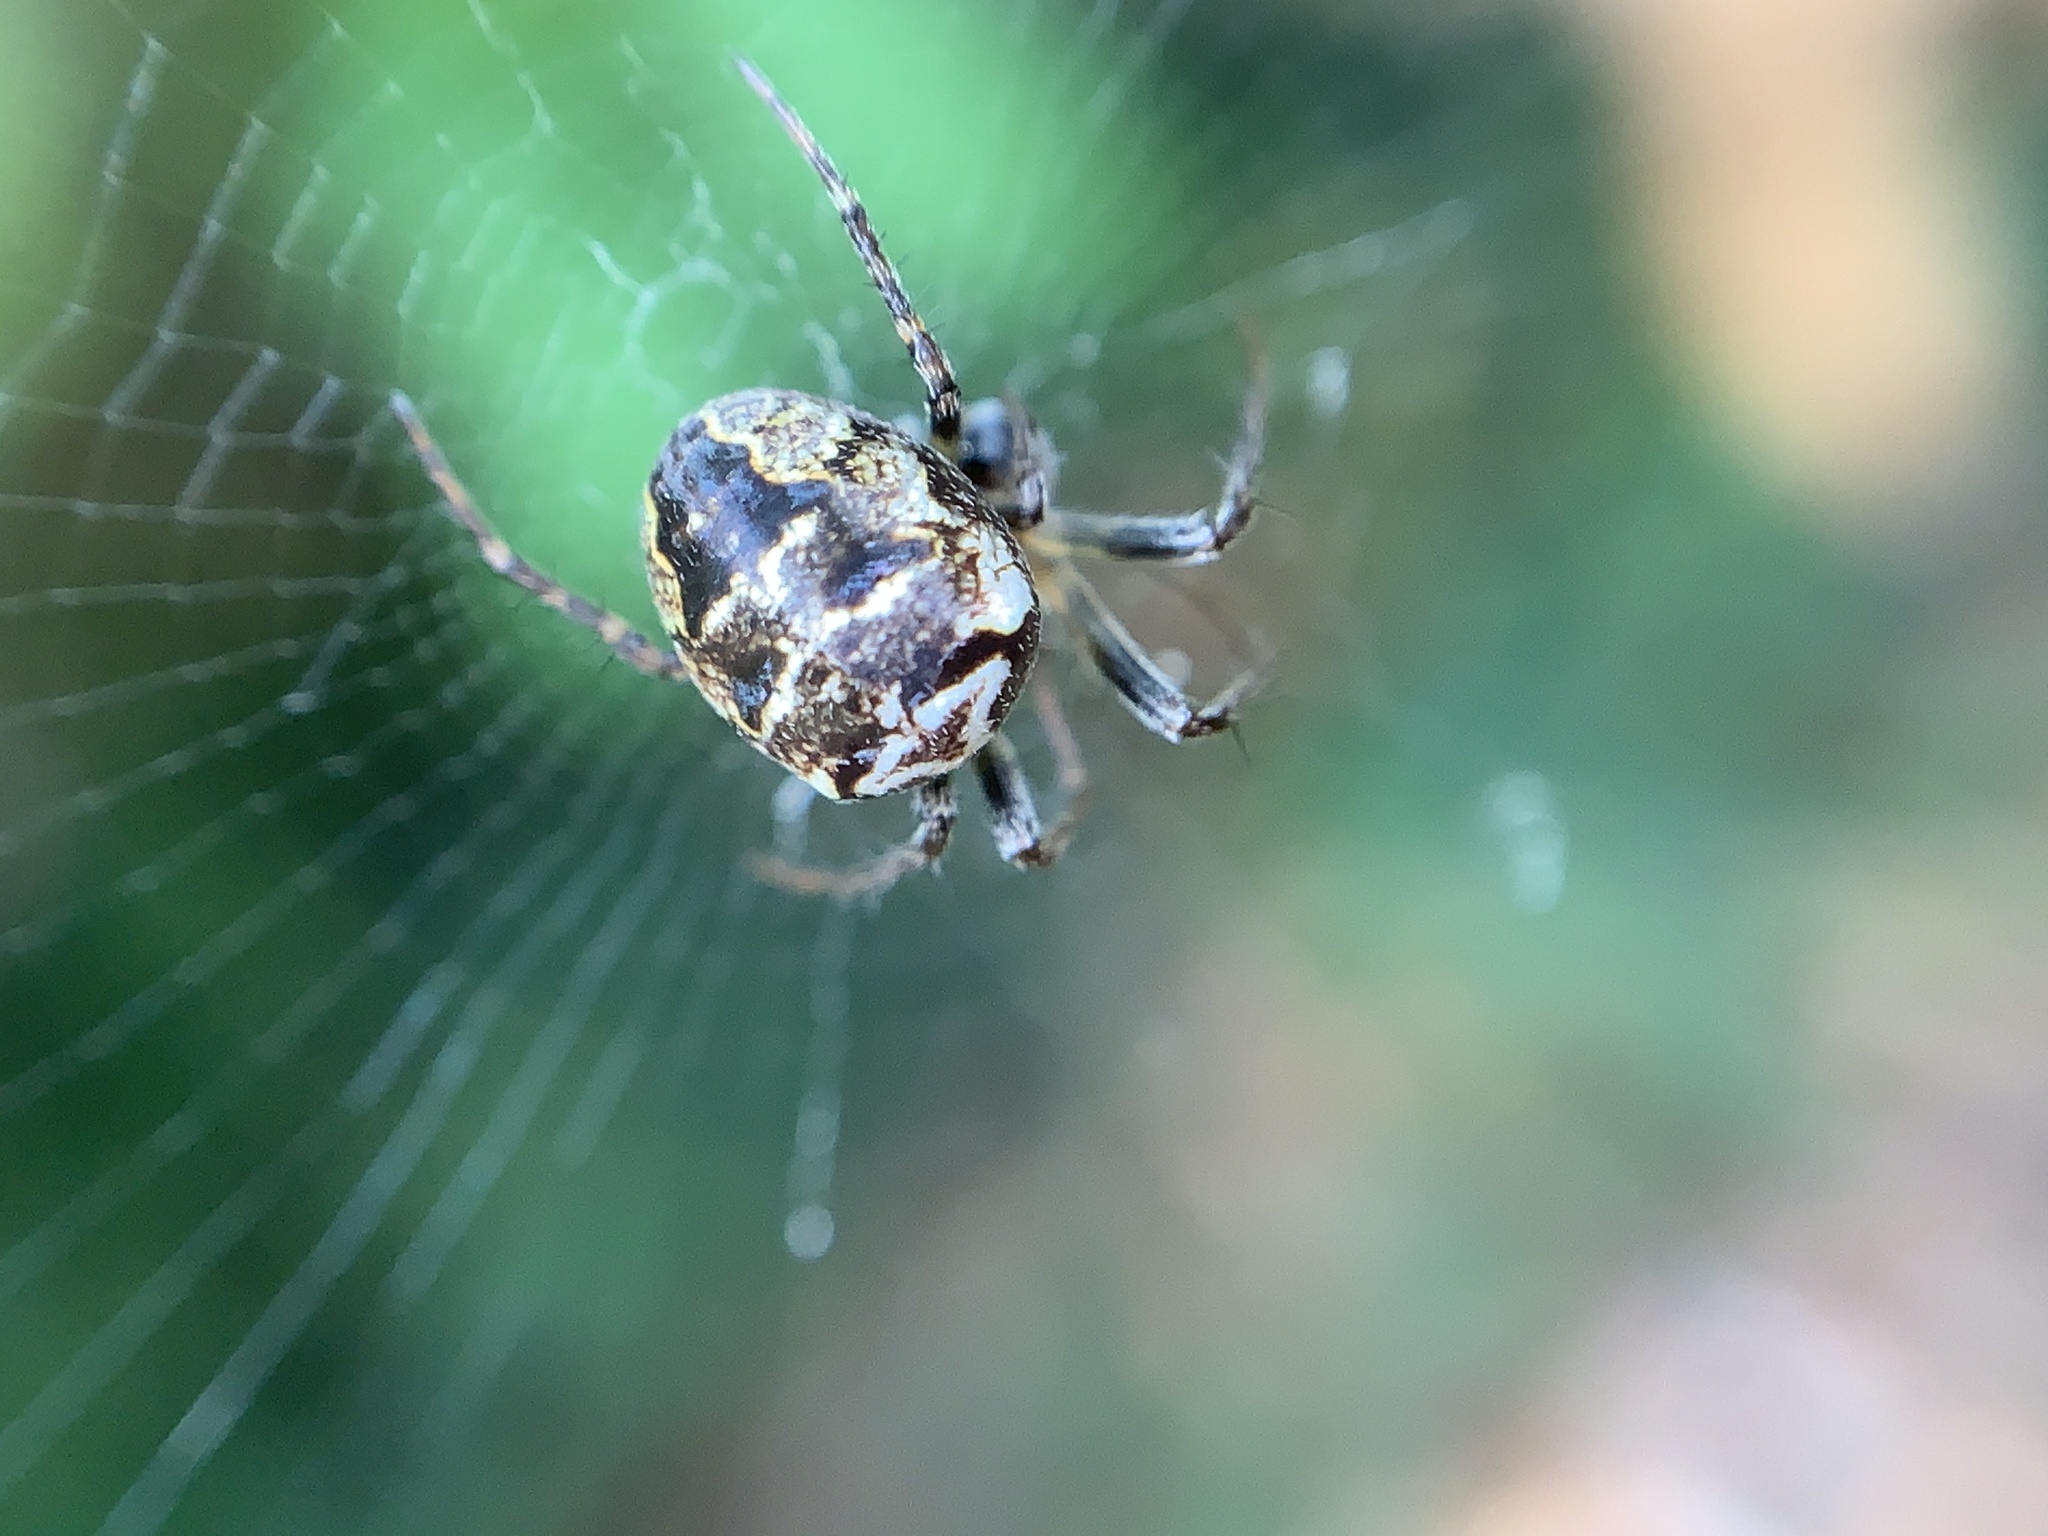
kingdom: Animalia
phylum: Arthropoda
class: Arachnida
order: Araneae
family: Araneidae
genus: Zilla
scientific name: Zilla diodia
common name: Zilla diodia
